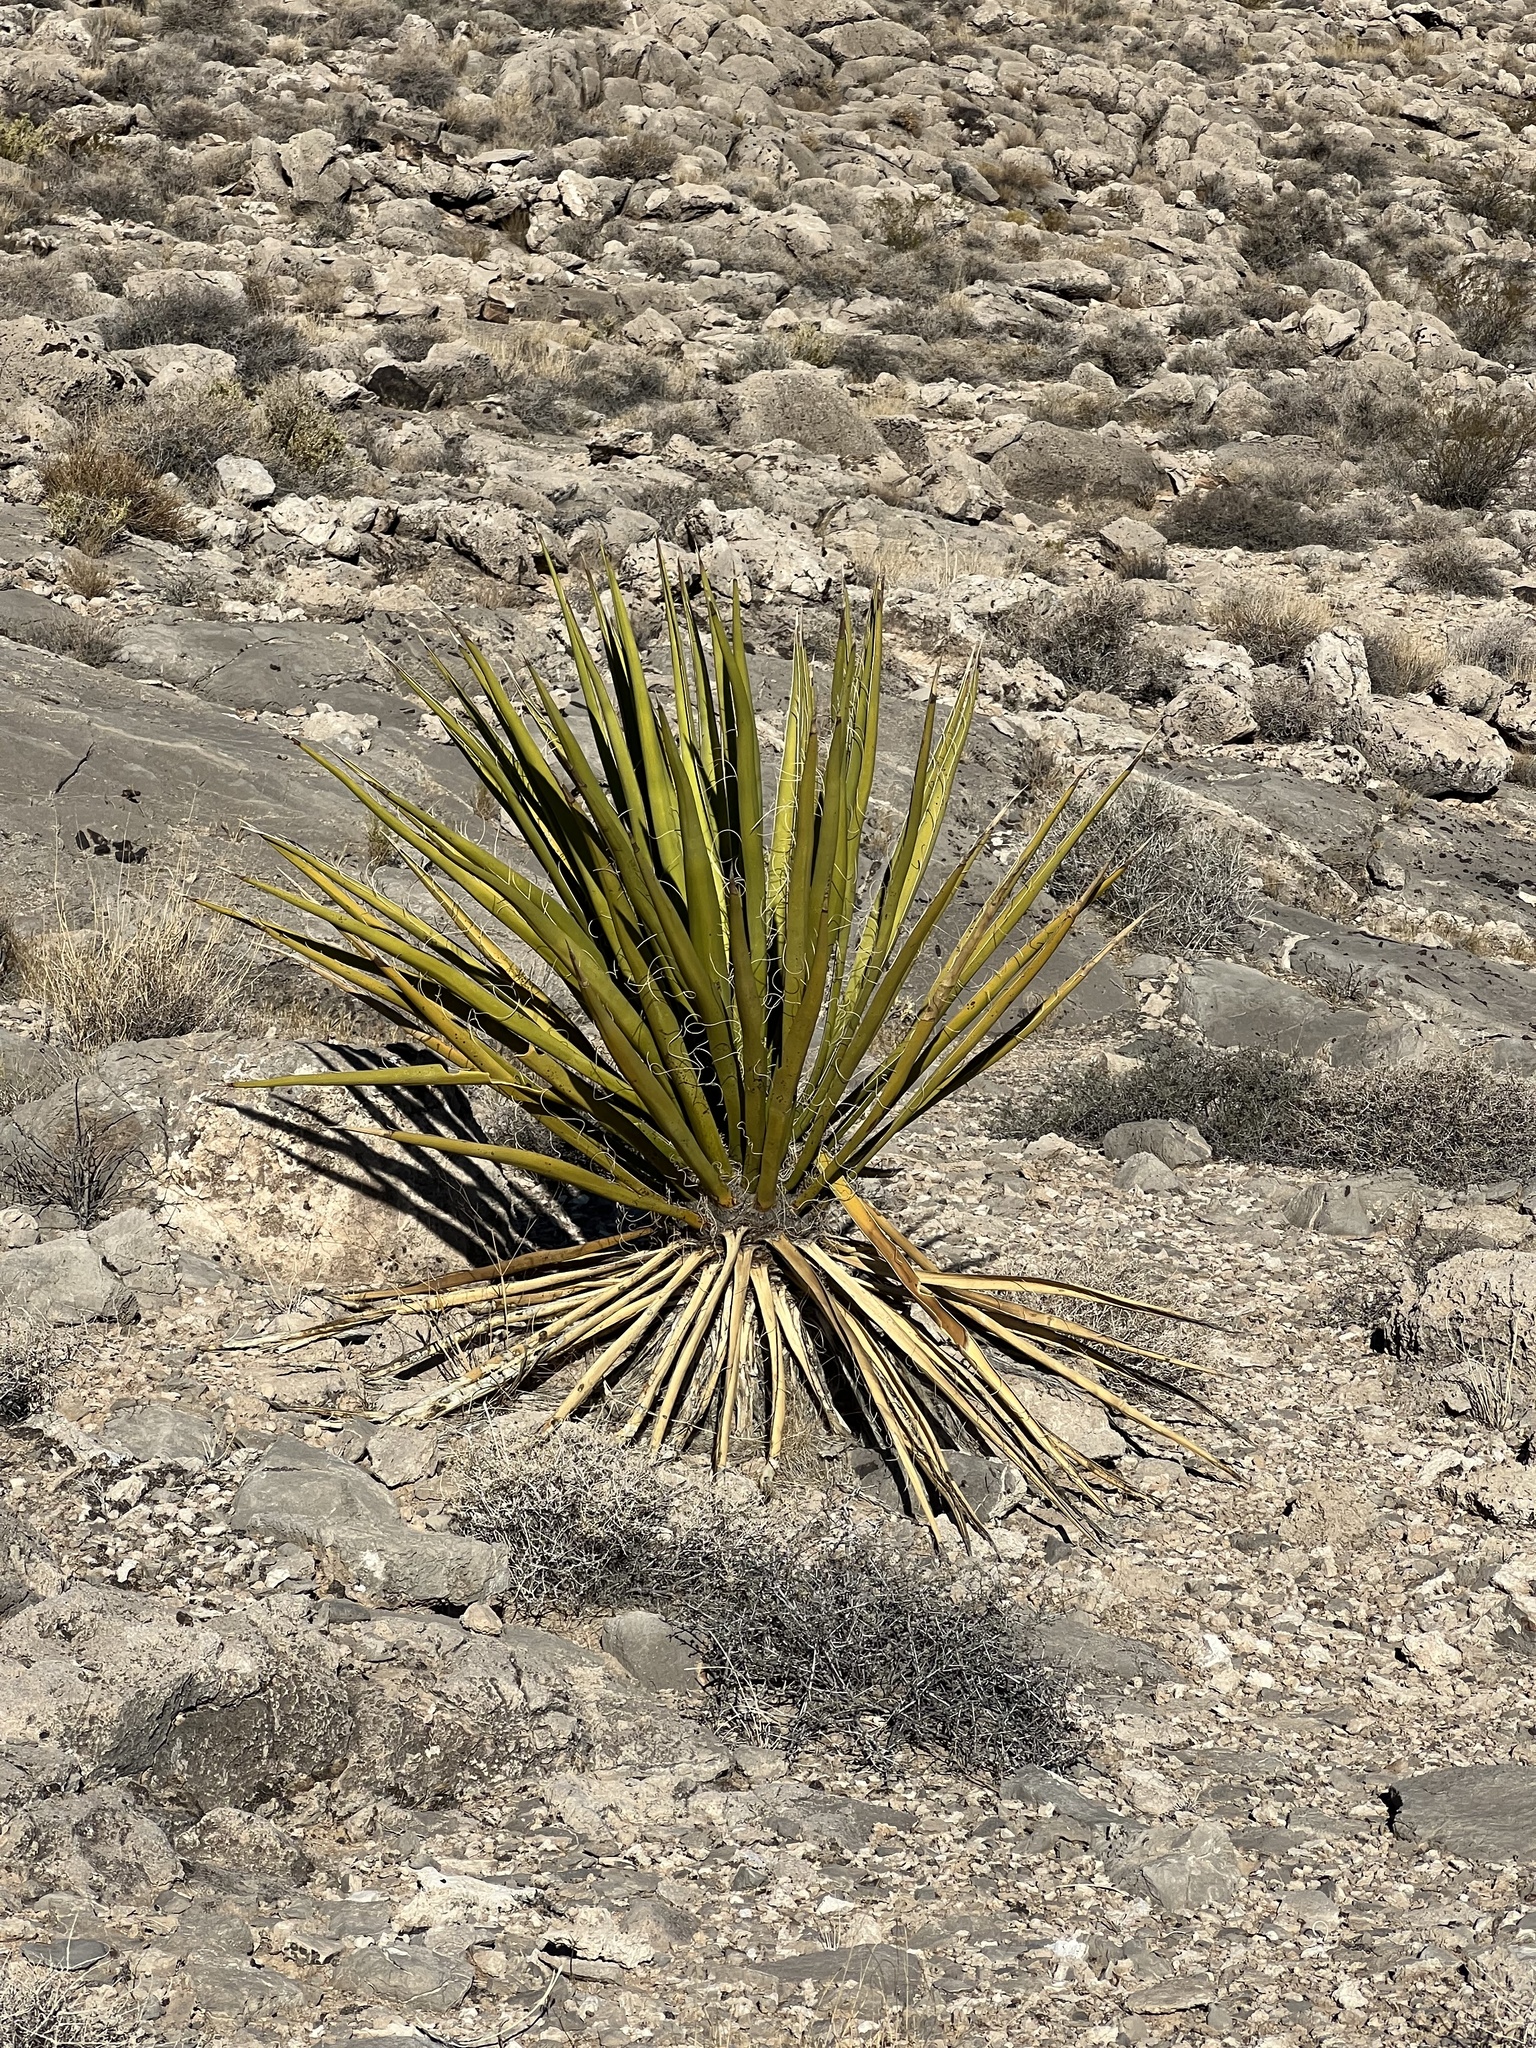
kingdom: Plantae
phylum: Tracheophyta
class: Liliopsida
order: Asparagales
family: Asparagaceae
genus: Yucca
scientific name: Yucca schidigera
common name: Mojave yucca
